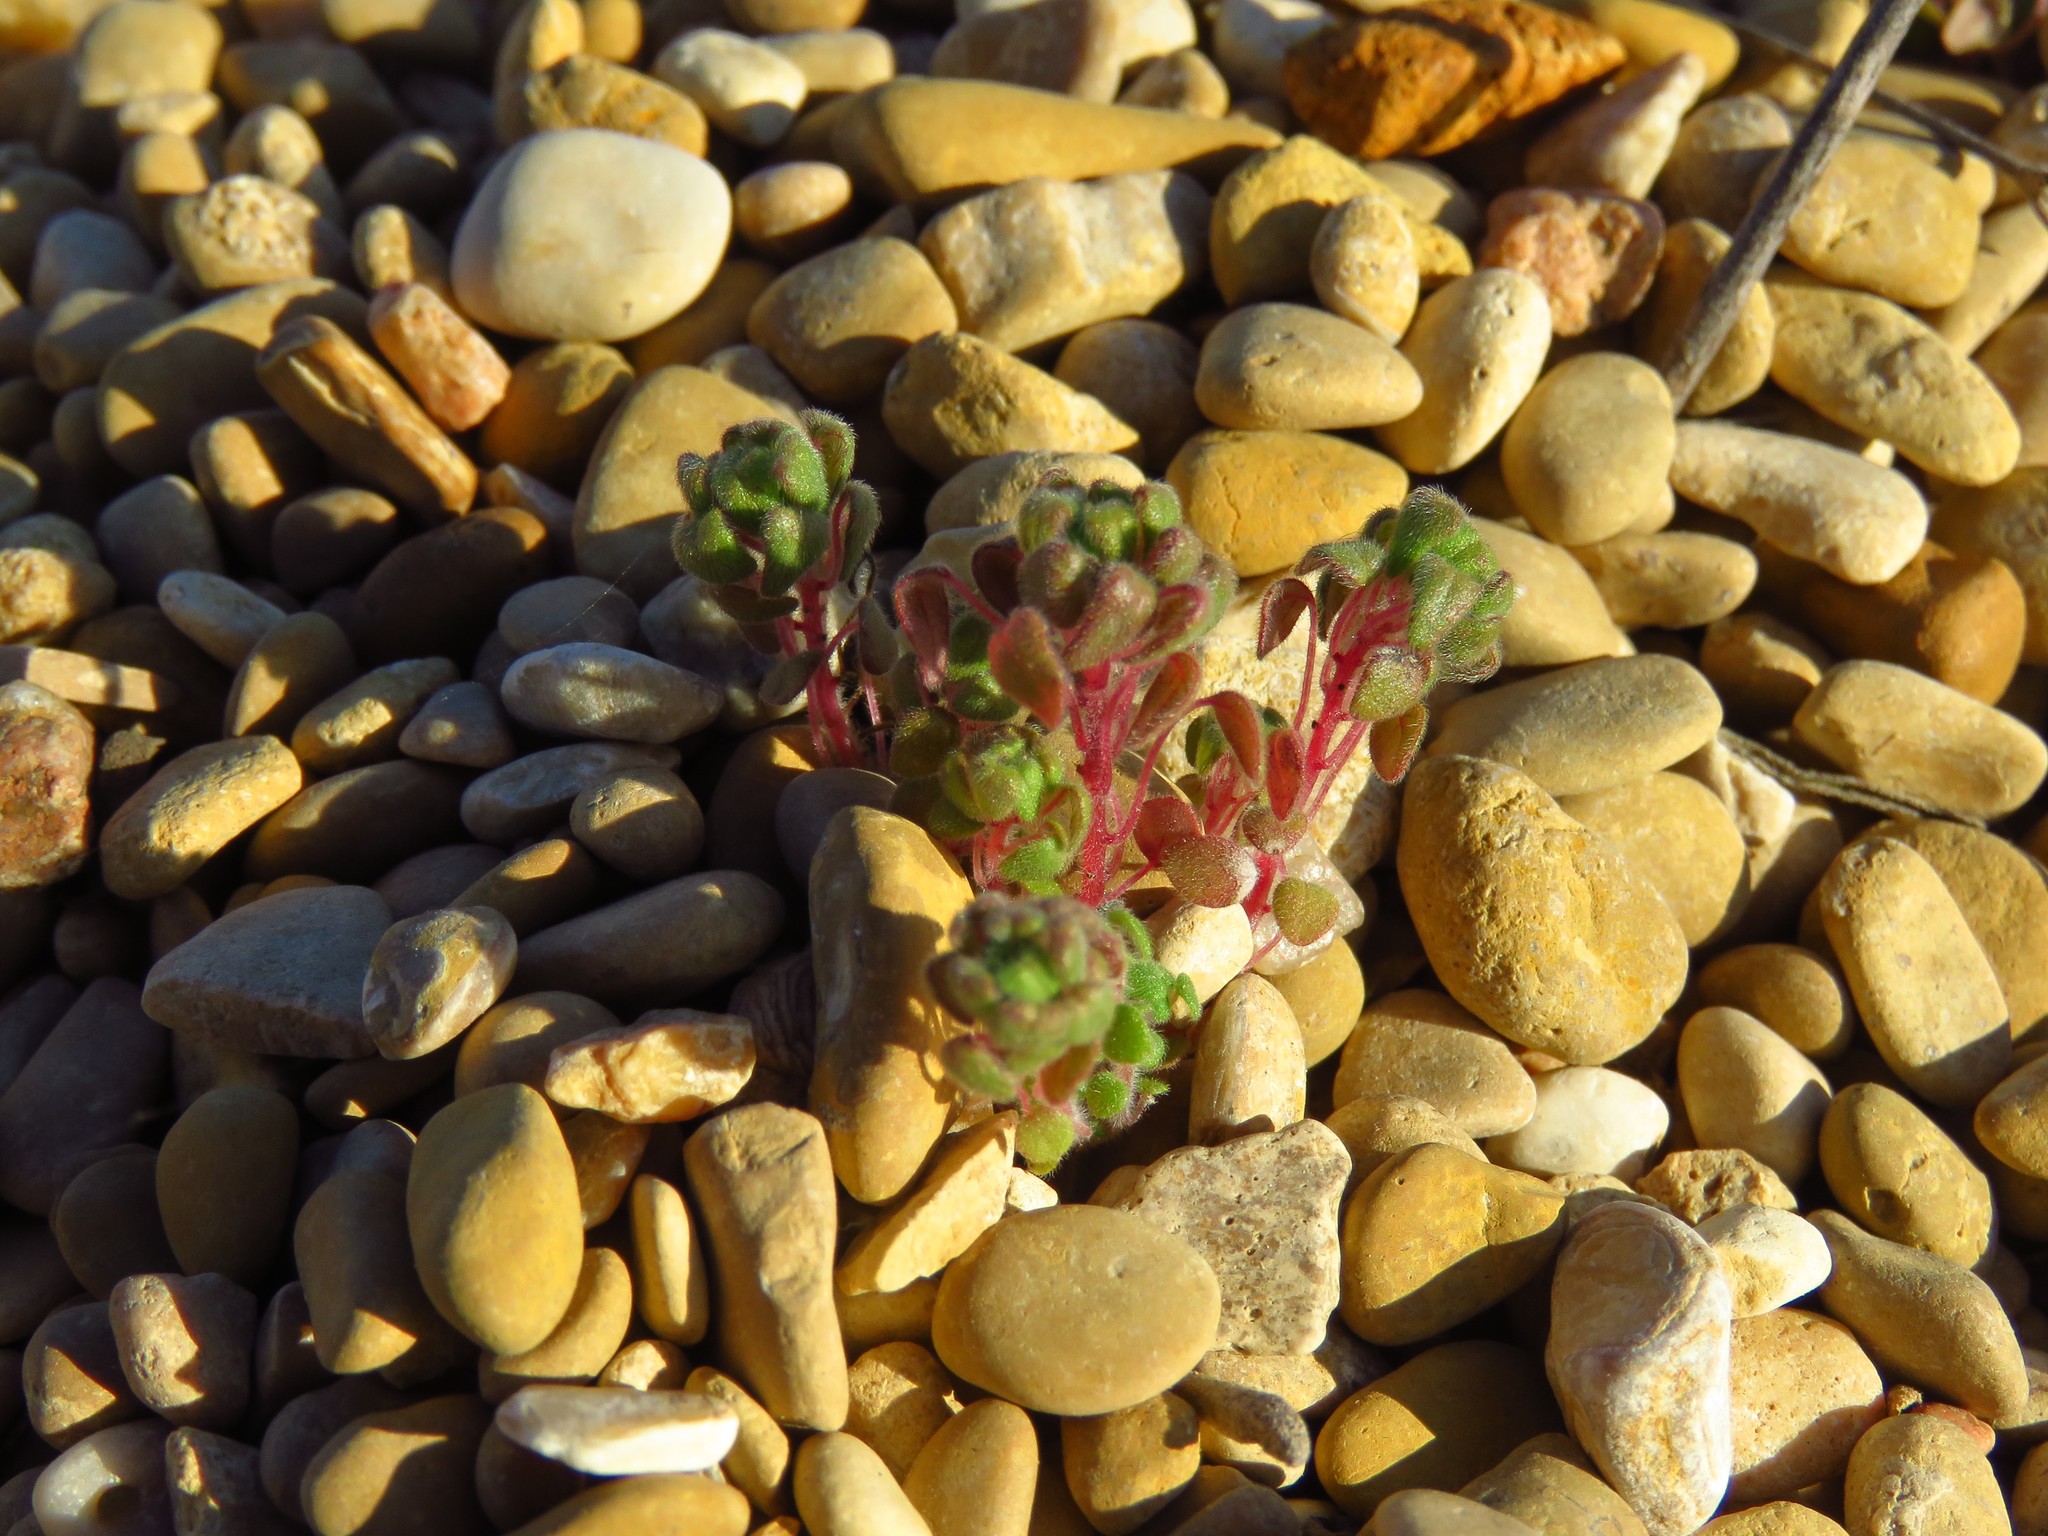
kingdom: Plantae
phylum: Tracheophyta
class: Magnoliopsida
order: Rosales
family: Urticaceae
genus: Parietaria
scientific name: Parietaria pensylvanica
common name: Pennsylvania pellitory
